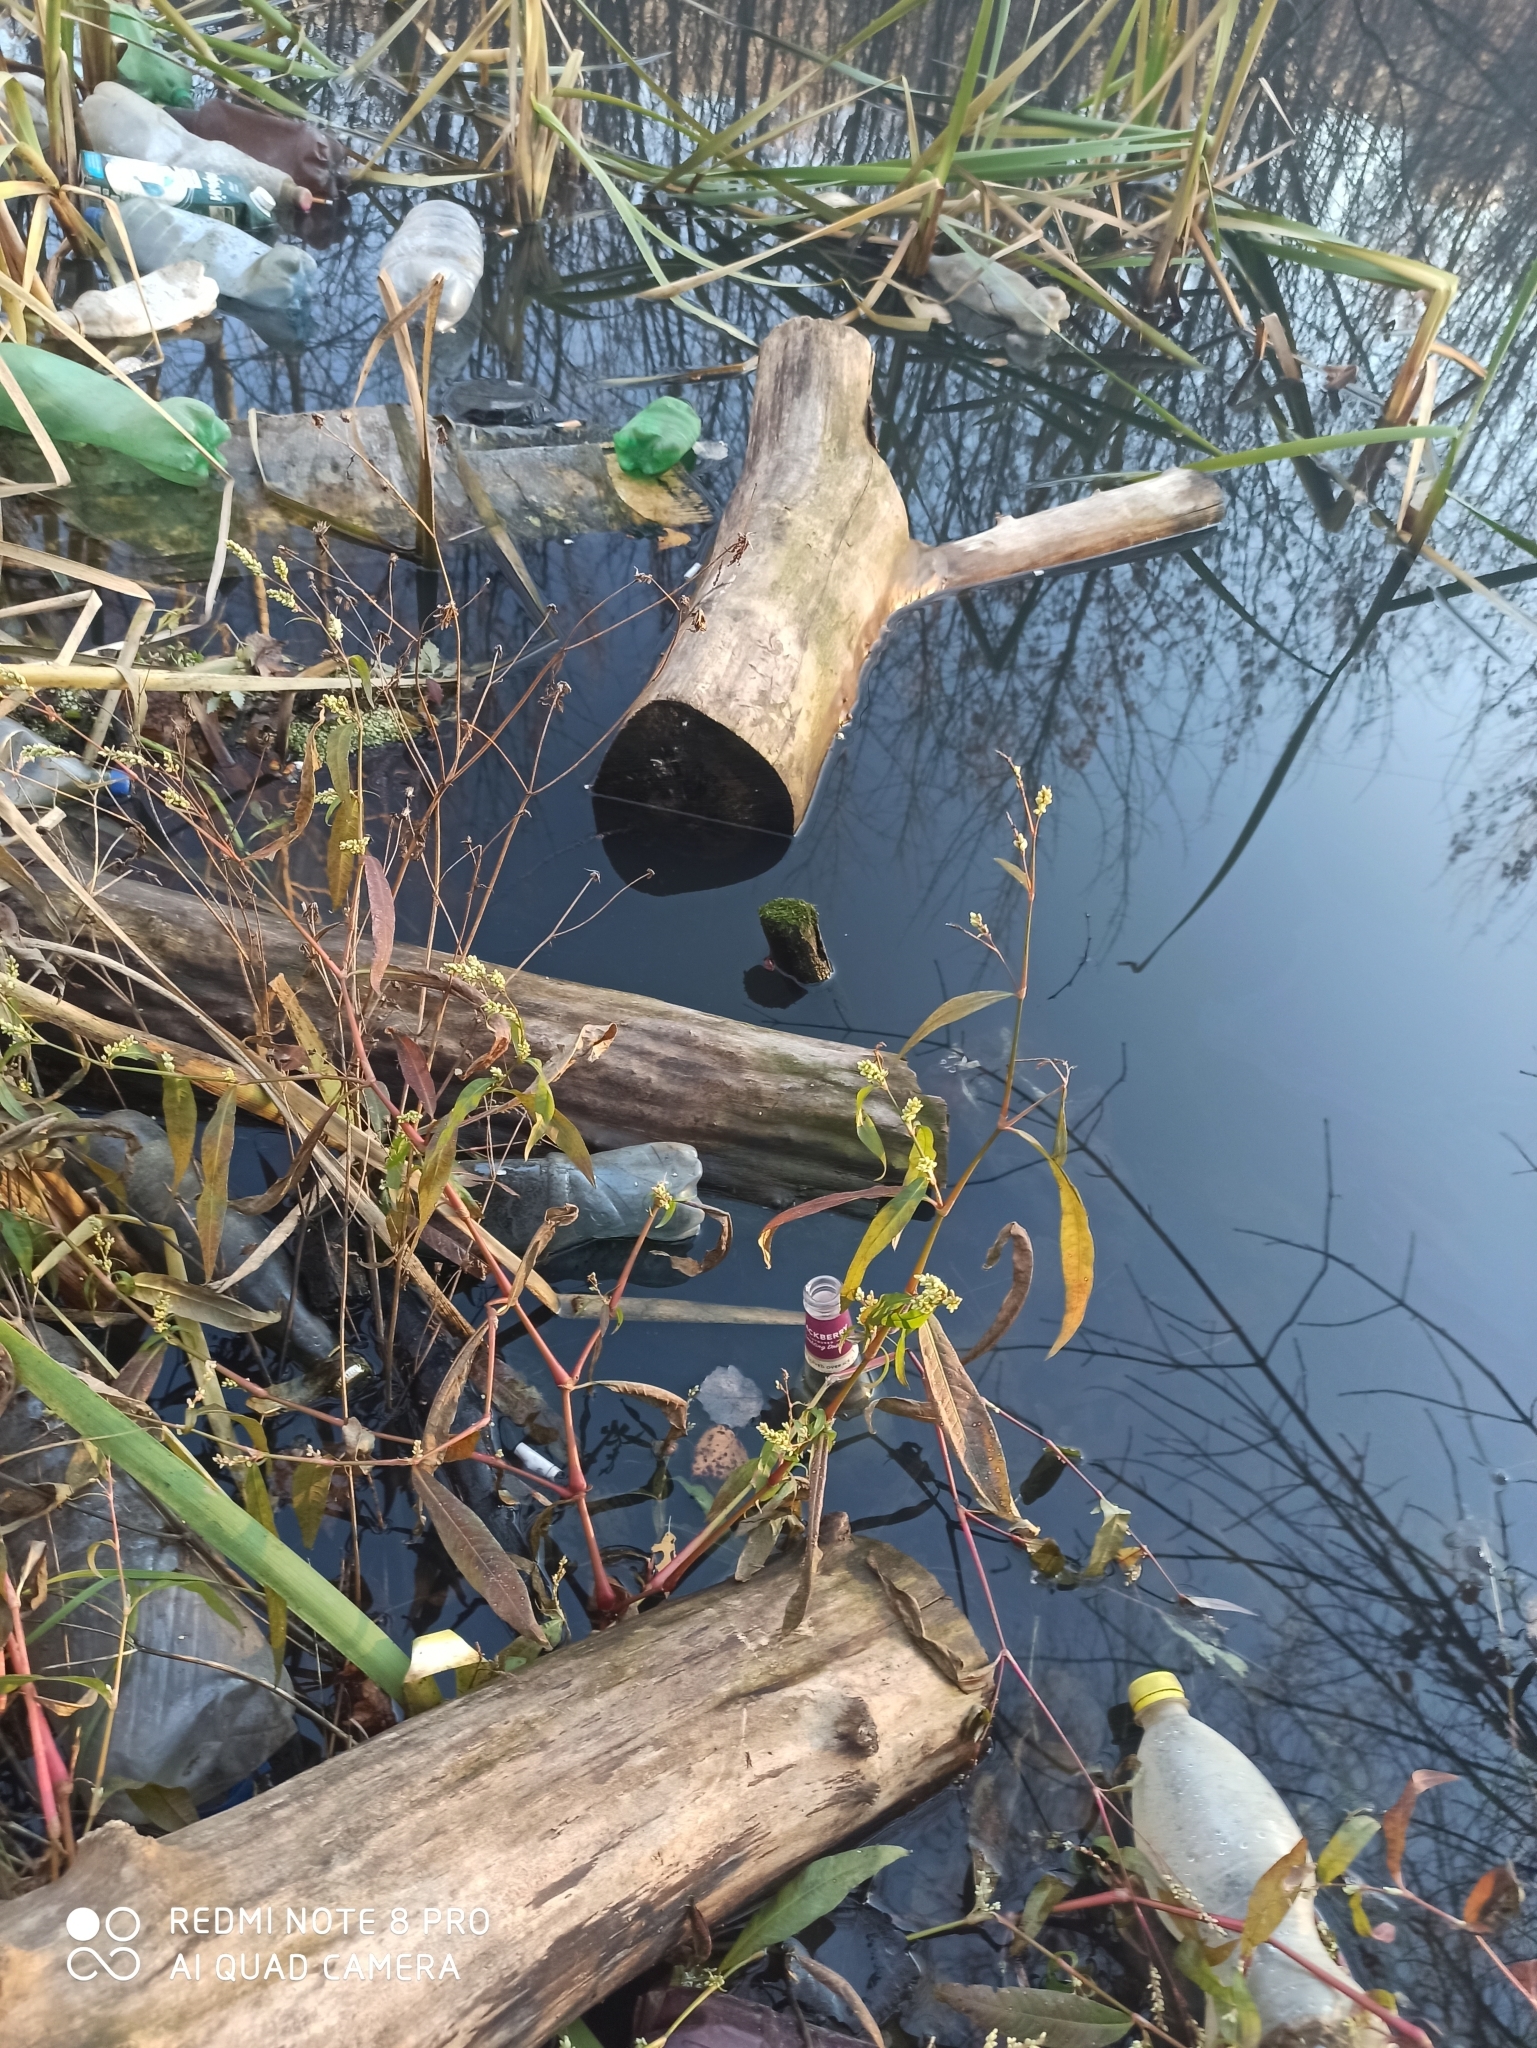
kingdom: Plantae
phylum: Tracheophyta
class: Magnoliopsida
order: Caryophyllales
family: Polygonaceae
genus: Persicaria
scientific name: Persicaria maculosa
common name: Redshank
